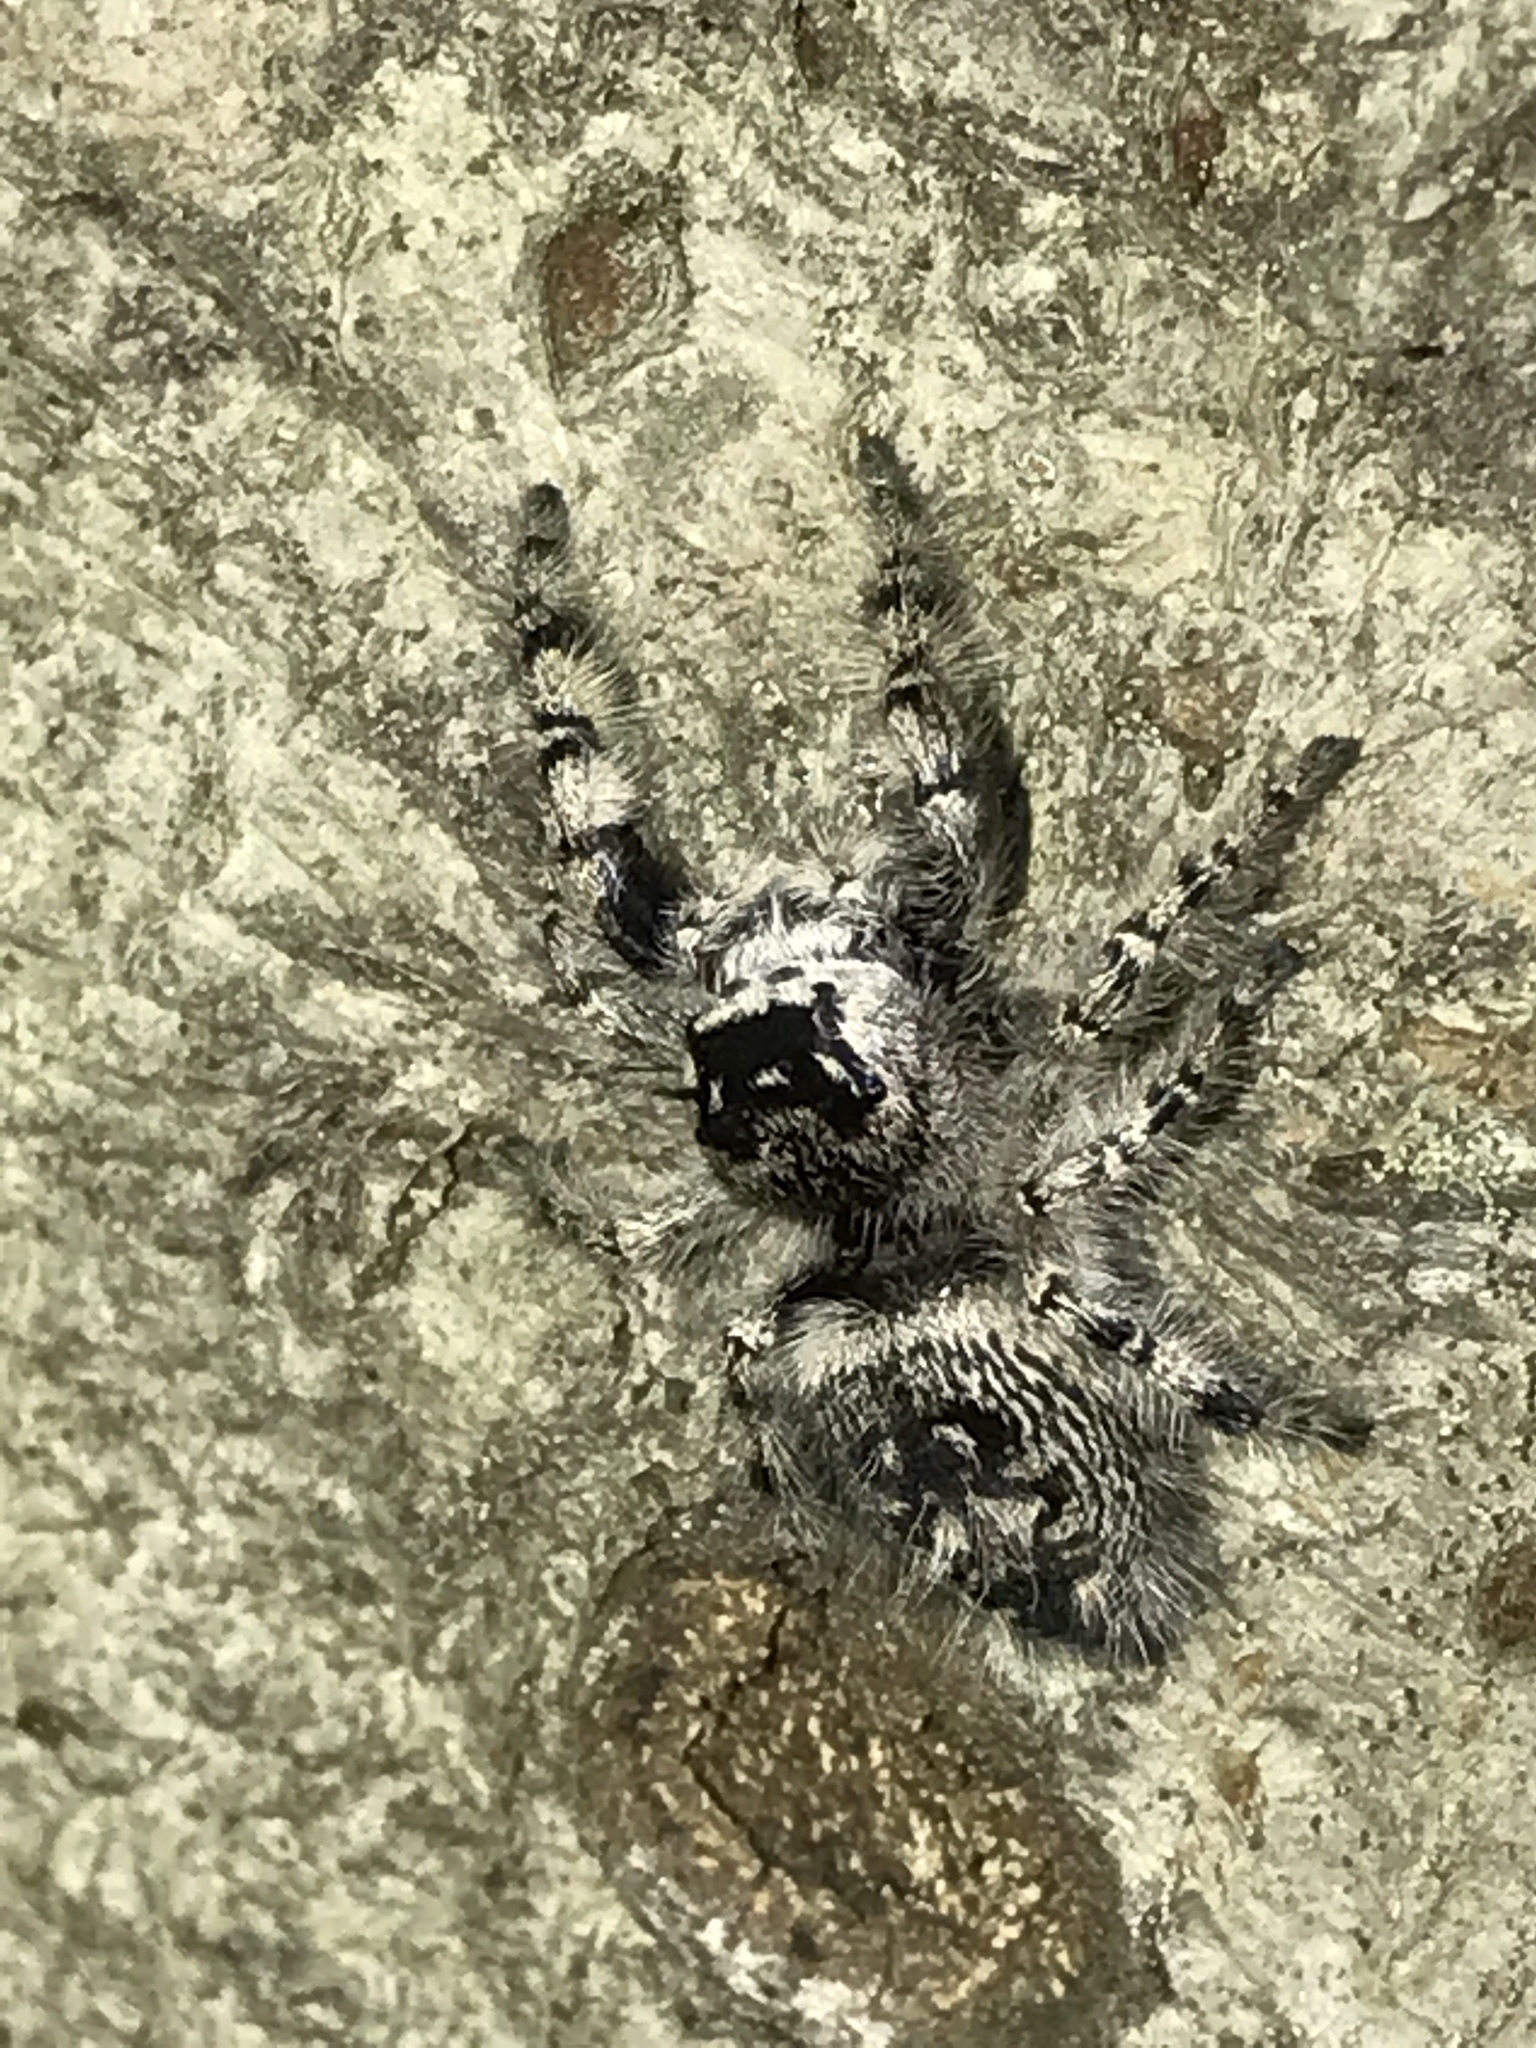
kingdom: Animalia
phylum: Arthropoda
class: Arachnida
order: Araneae
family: Salticidae
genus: Phidippus
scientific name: Phidippus otiosus
